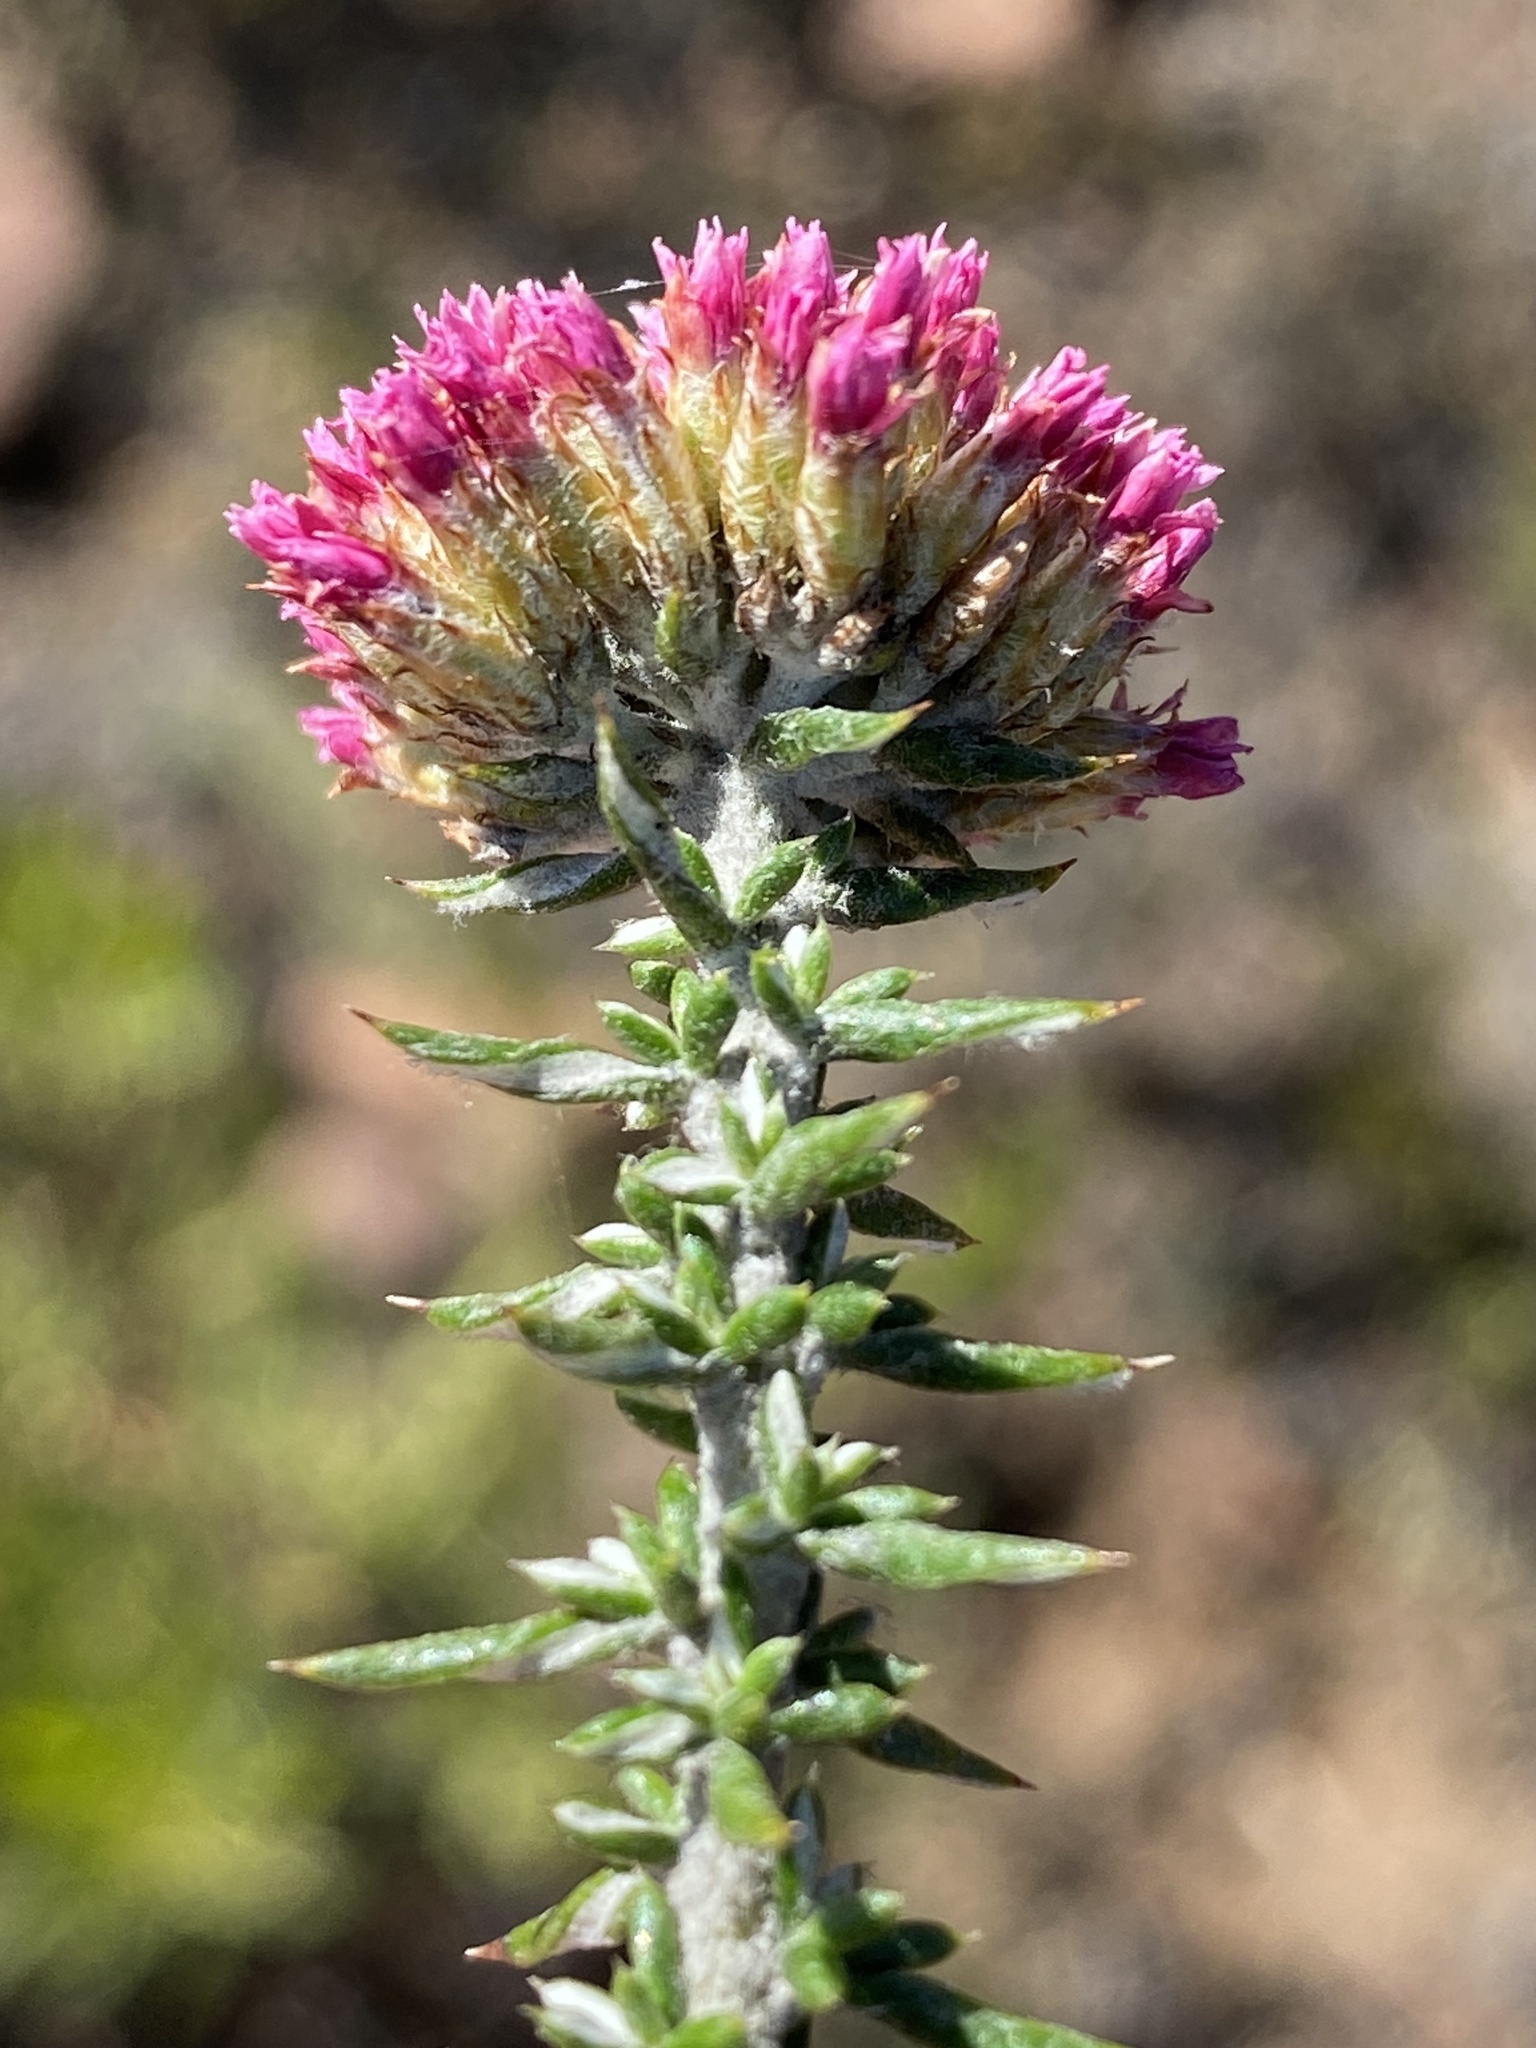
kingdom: Plantae
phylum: Tracheophyta
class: Magnoliopsida
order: Asterales
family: Asteraceae
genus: Metalasia
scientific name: Metalasia massonii
